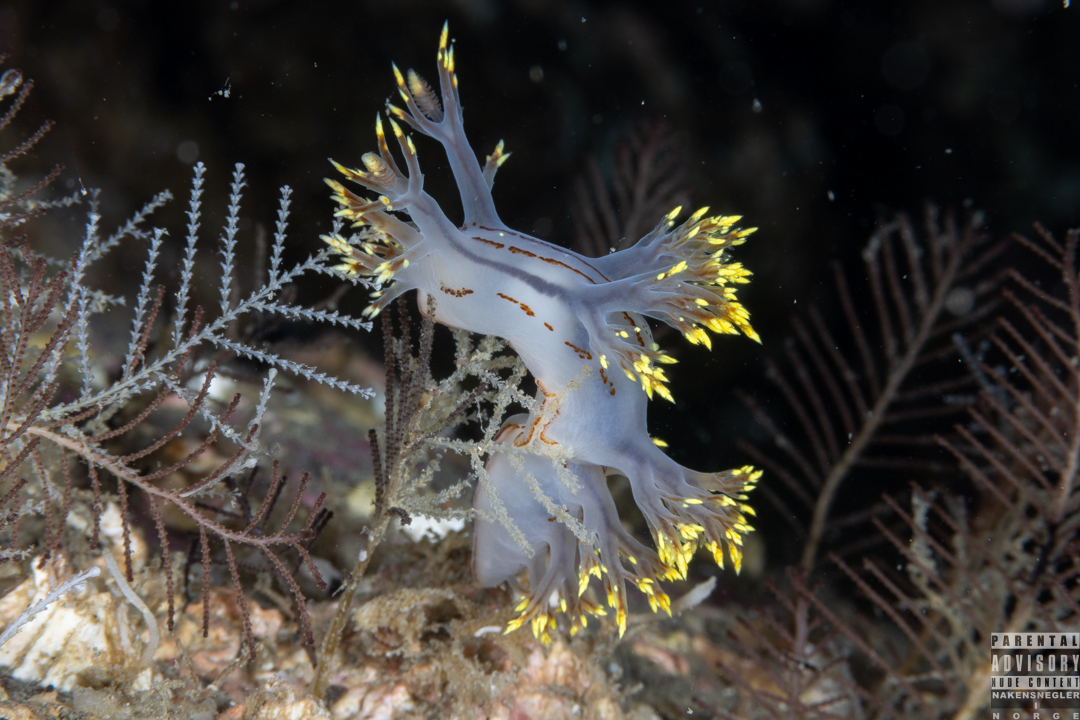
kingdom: Animalia
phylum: Mollusca
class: Gastropoda
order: Nudibranchia
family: Dendronotidae
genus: Dendronotus
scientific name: Dendronotus yrjargul
